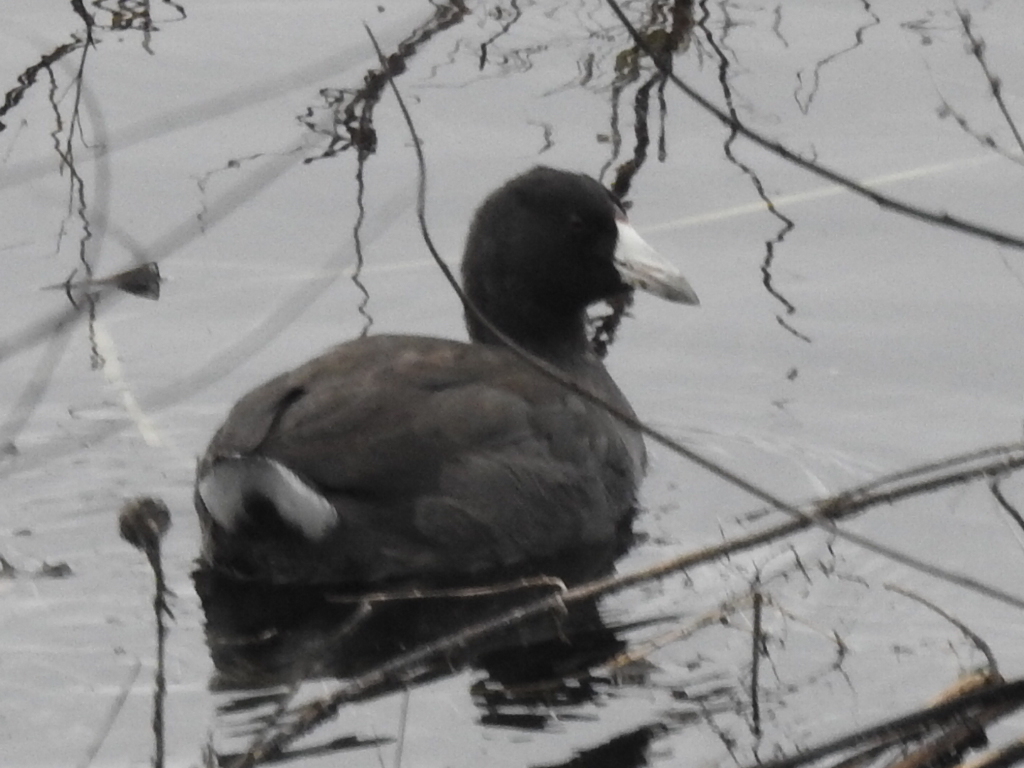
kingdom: Animalia
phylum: Chordata
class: Aves
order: Gruiformes
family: Rallidae
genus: Fulica
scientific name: Fulica americana
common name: American coot
